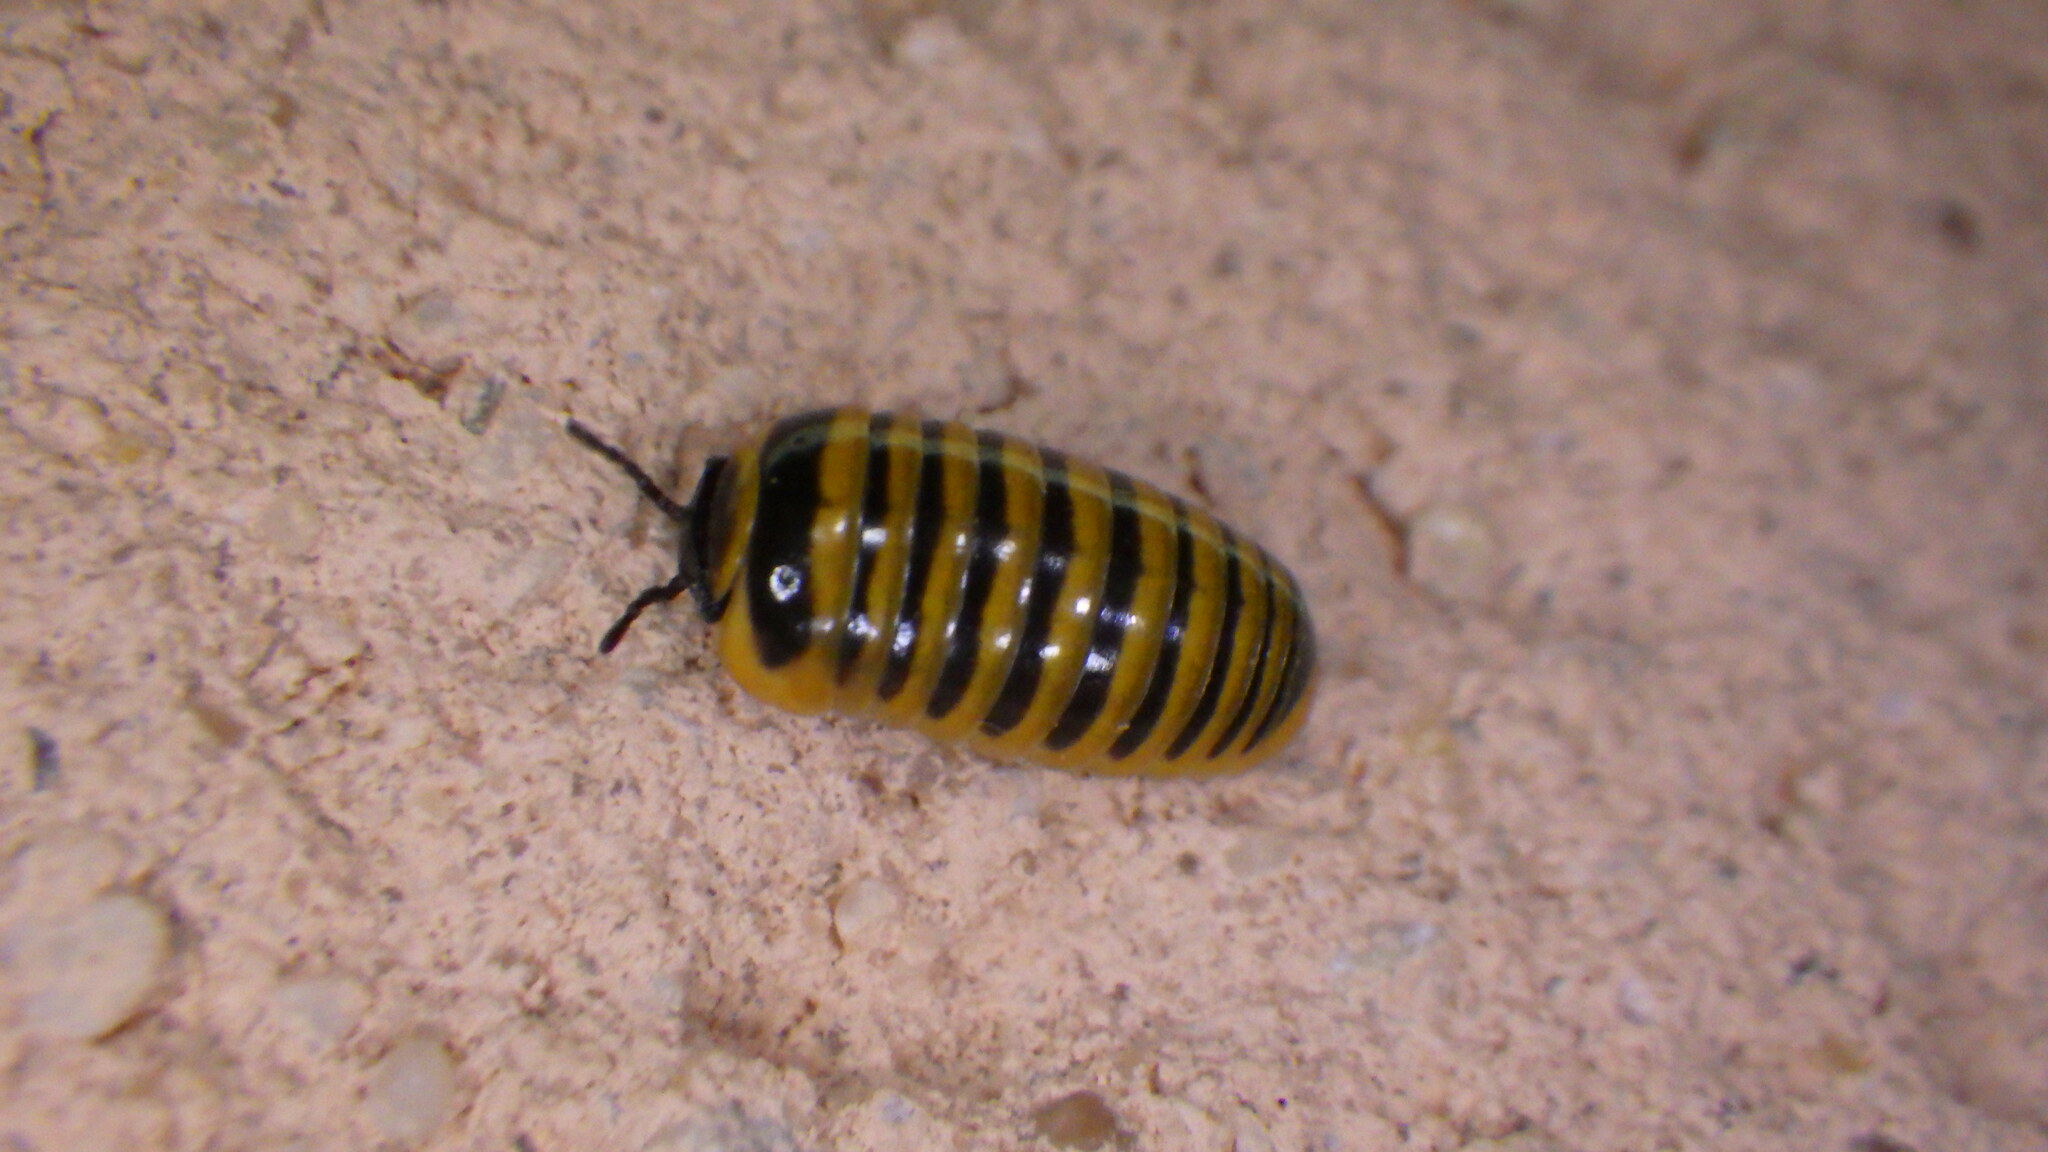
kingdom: Animalia
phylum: Arthropoda
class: Diplopoda
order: Glomerida
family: Glomeridae
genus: Glomeris
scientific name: Glomeris annulata
